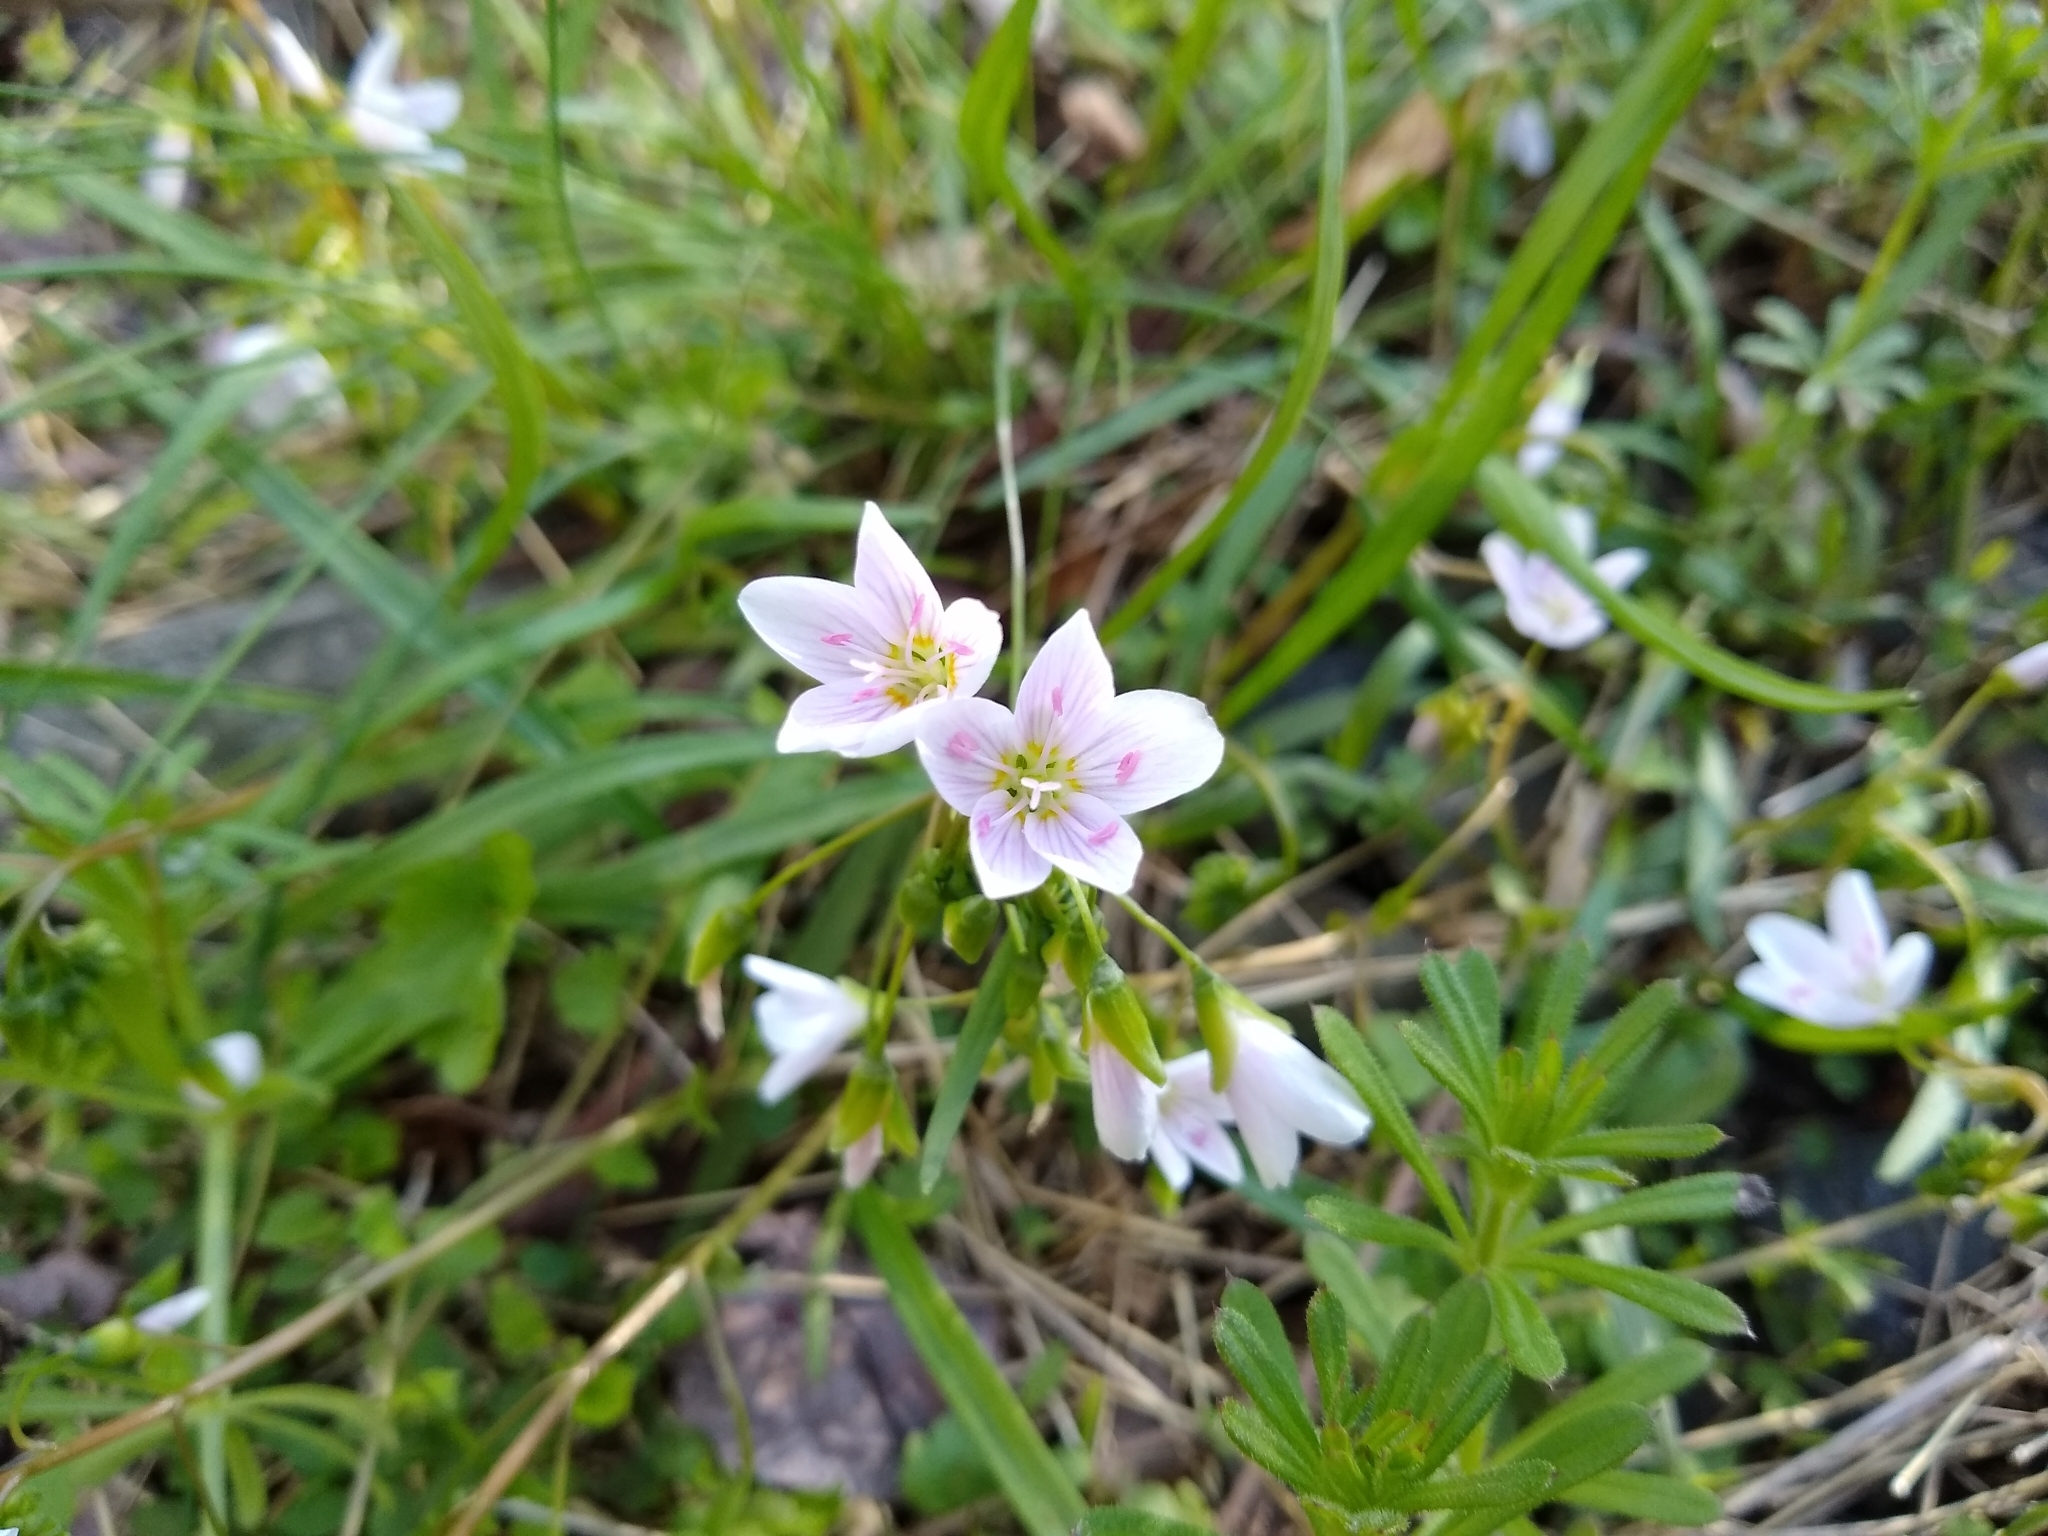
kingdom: Plantae
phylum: Tracheophyta
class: Magnoliopsida
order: Caryophyllales
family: Montiaceae
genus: Claytonia
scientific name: Claytonia virginica
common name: Virginia springbeauty
